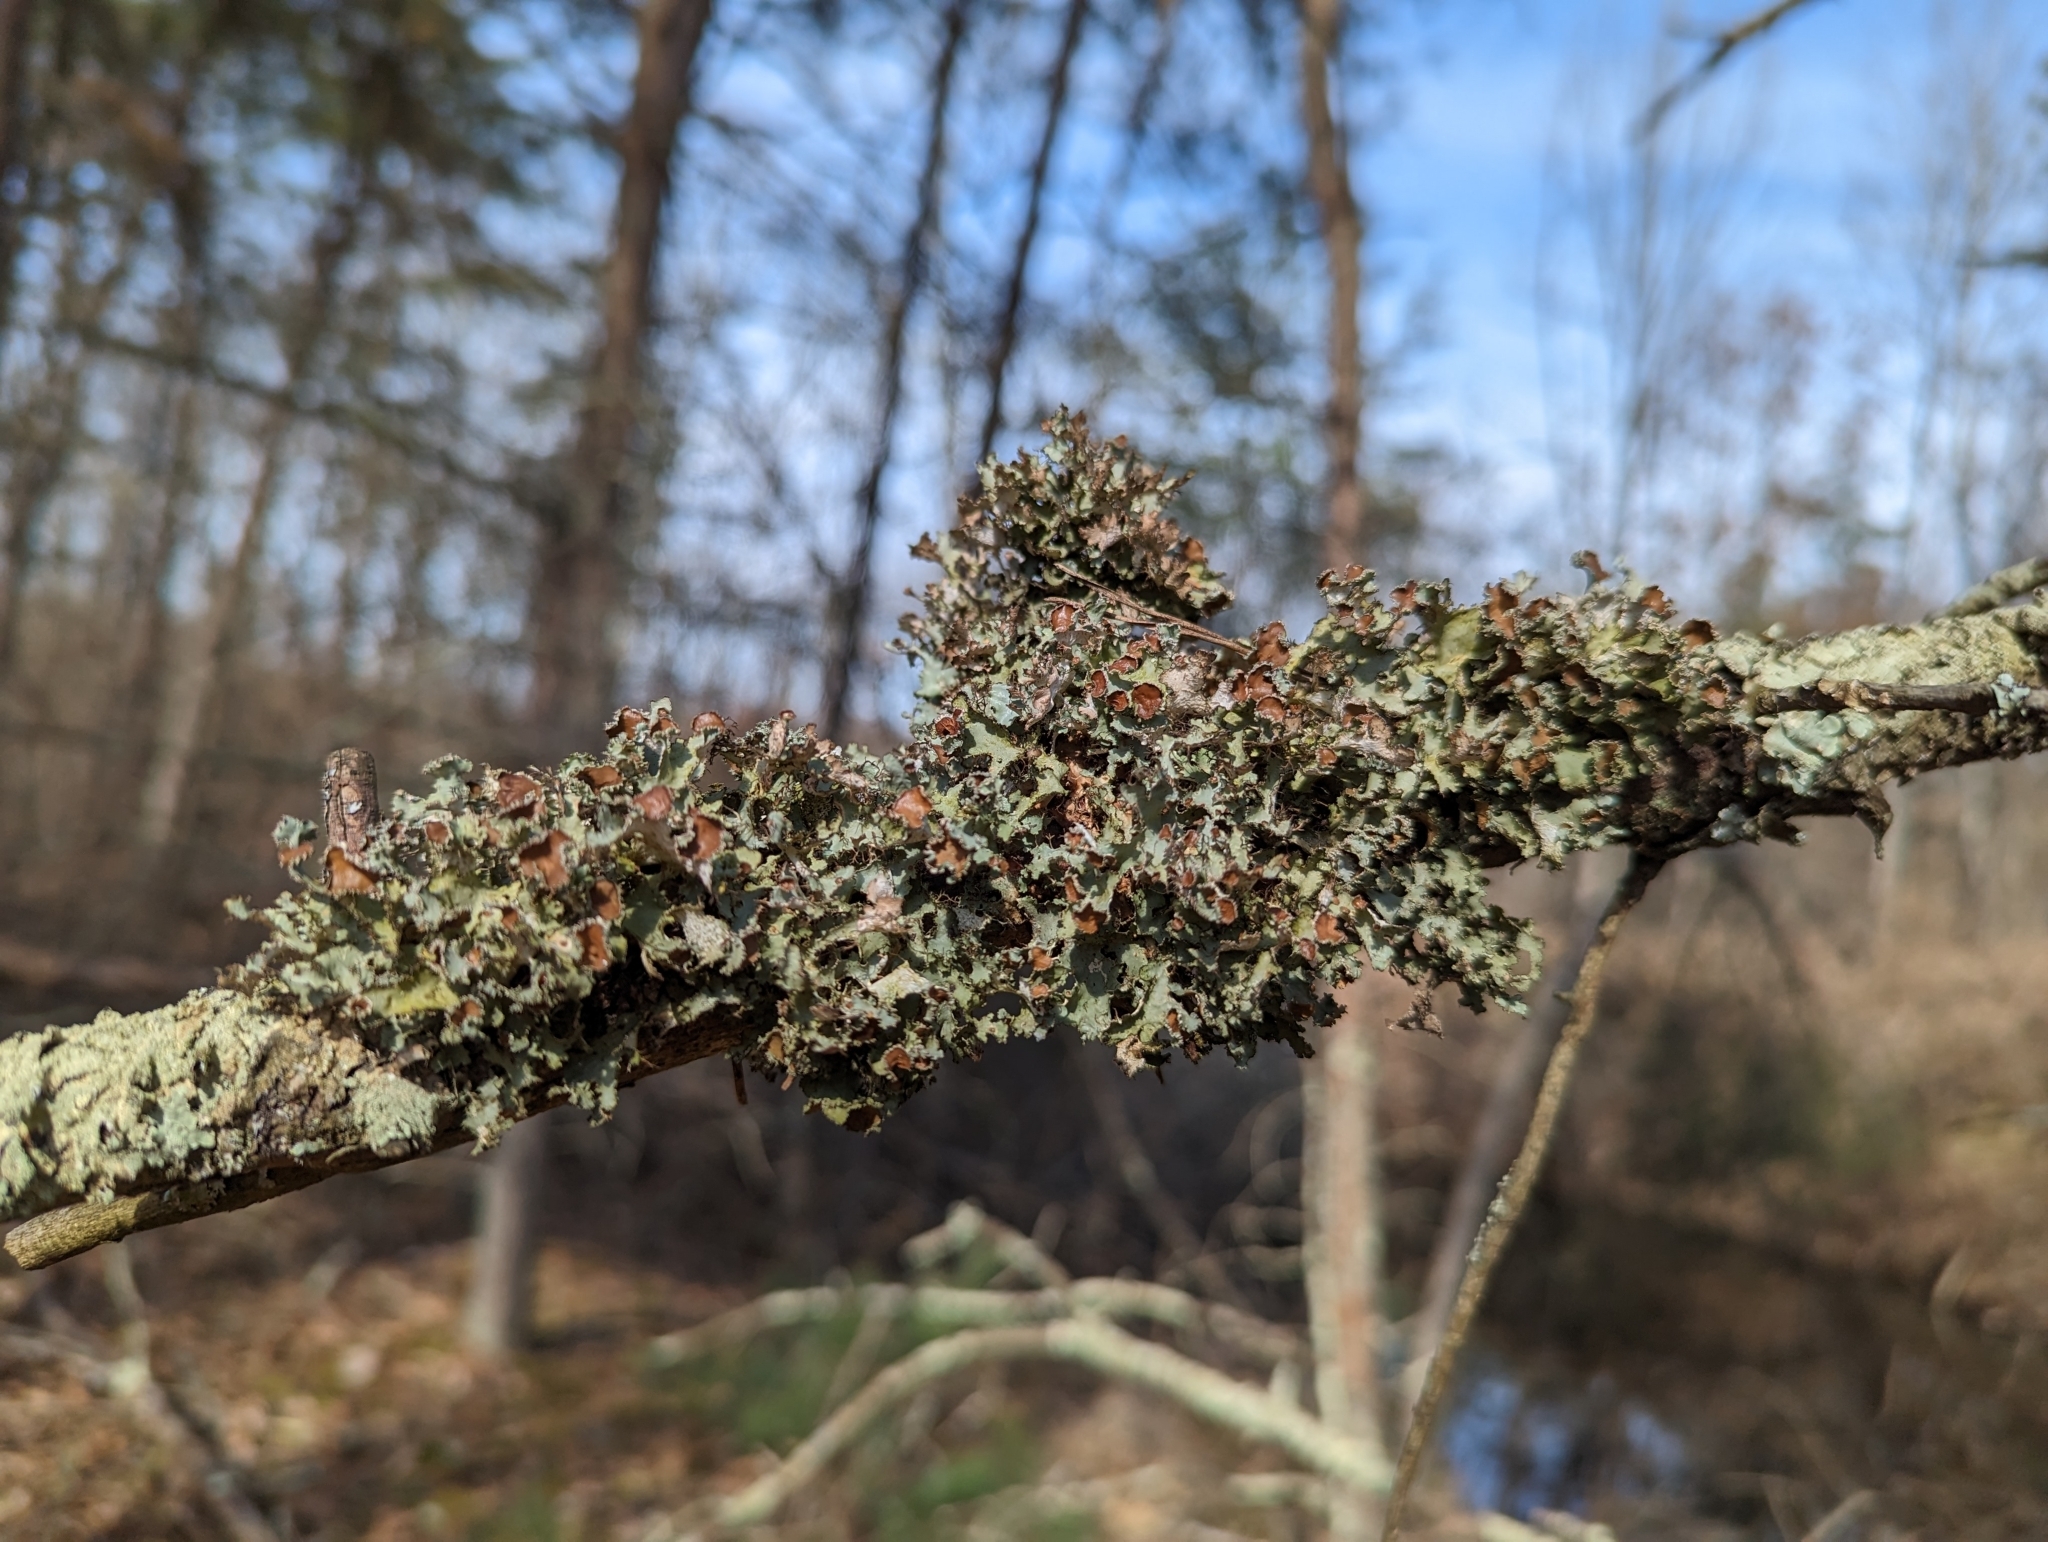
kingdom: Fungi
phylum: Ascomycota
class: Lecanoromycetes
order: Lecanorales
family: Parmeliaceae
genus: Tuckermannopsis
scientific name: Tuckermannopsis ciliaris
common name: Ciliate wrinkle-lichen
